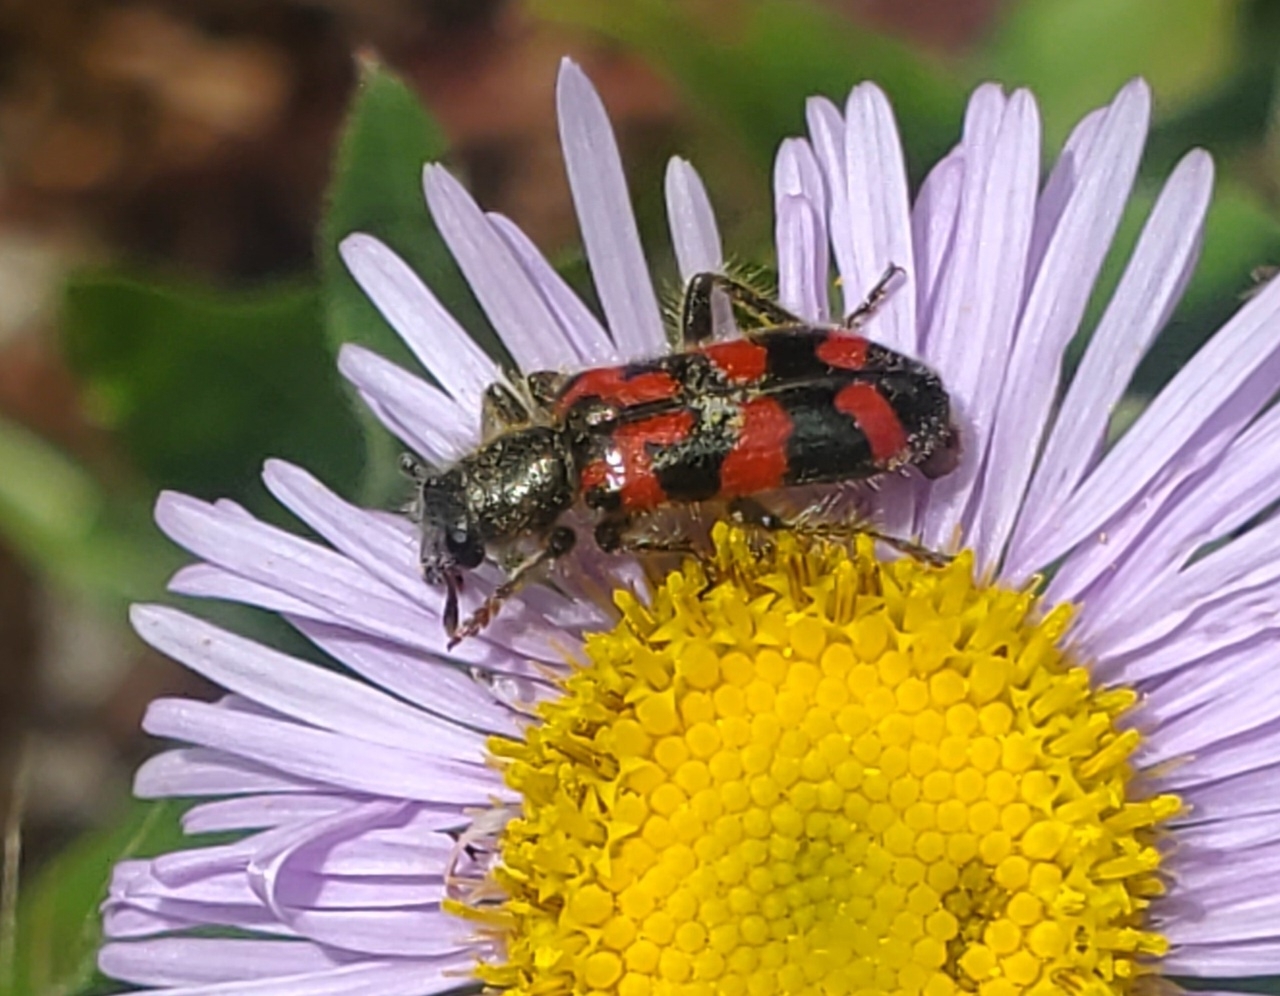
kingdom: Animalia
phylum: Arthropoda
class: Insecta
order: Coleoptera
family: Cleridae
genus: Trichodes
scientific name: Trichodes ornatus
